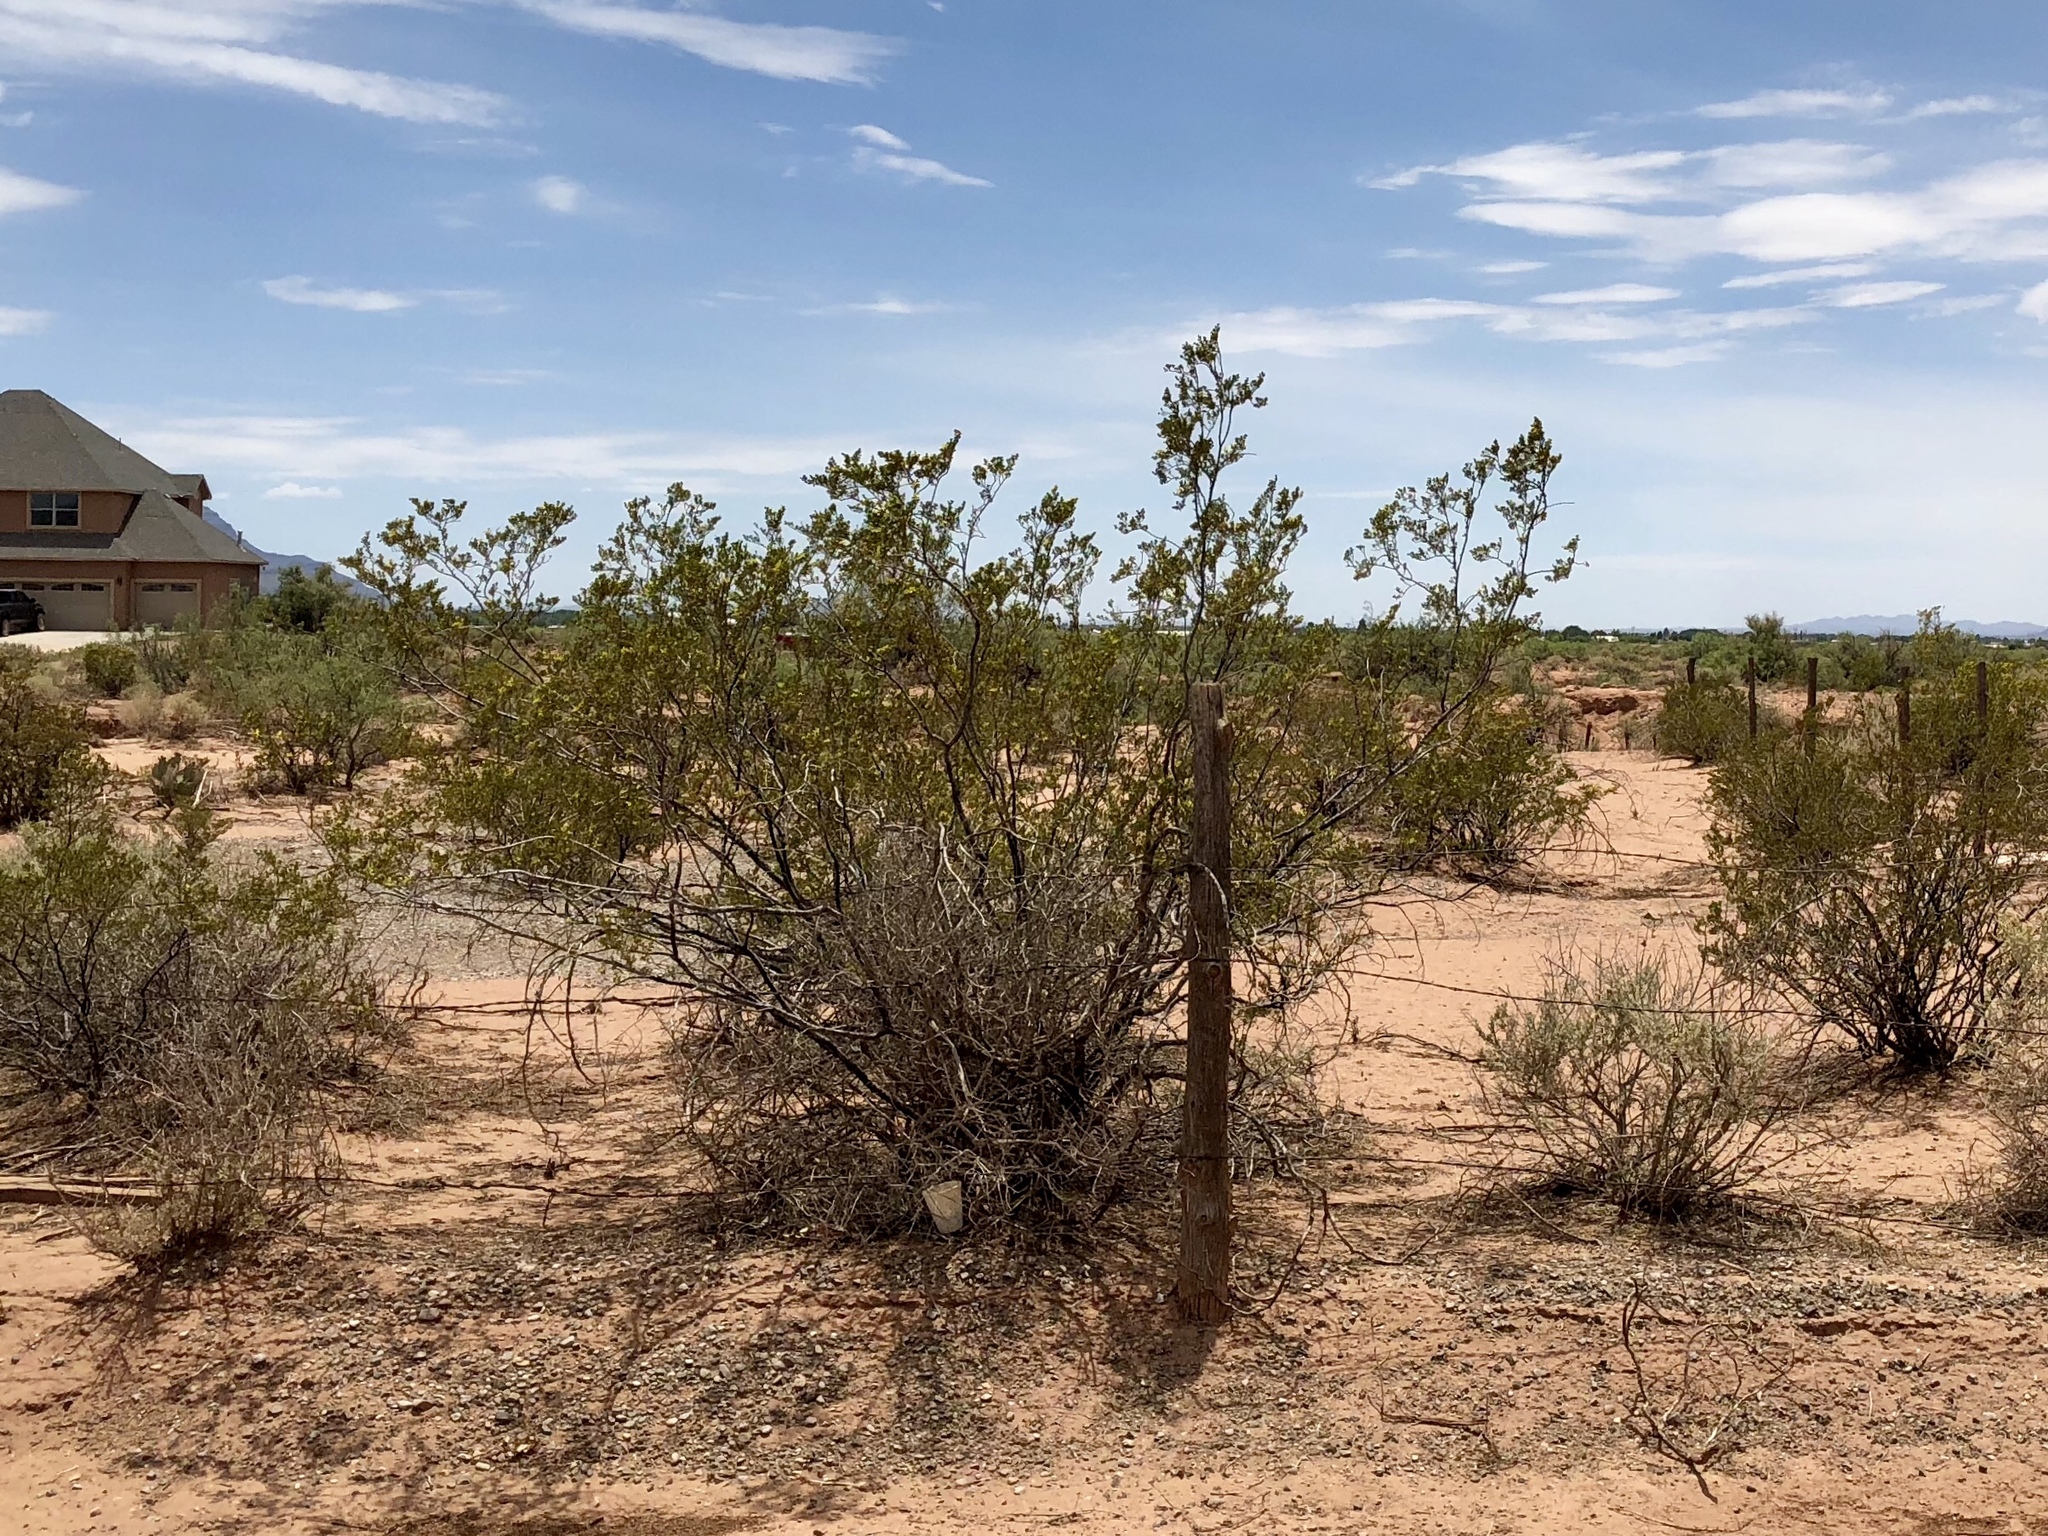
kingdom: Plantae
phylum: Tracheophyta
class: Magnoliopsida
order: Zygophyllales
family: Zygophyllaceae
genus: Larrea
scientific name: Larrea tridentata
